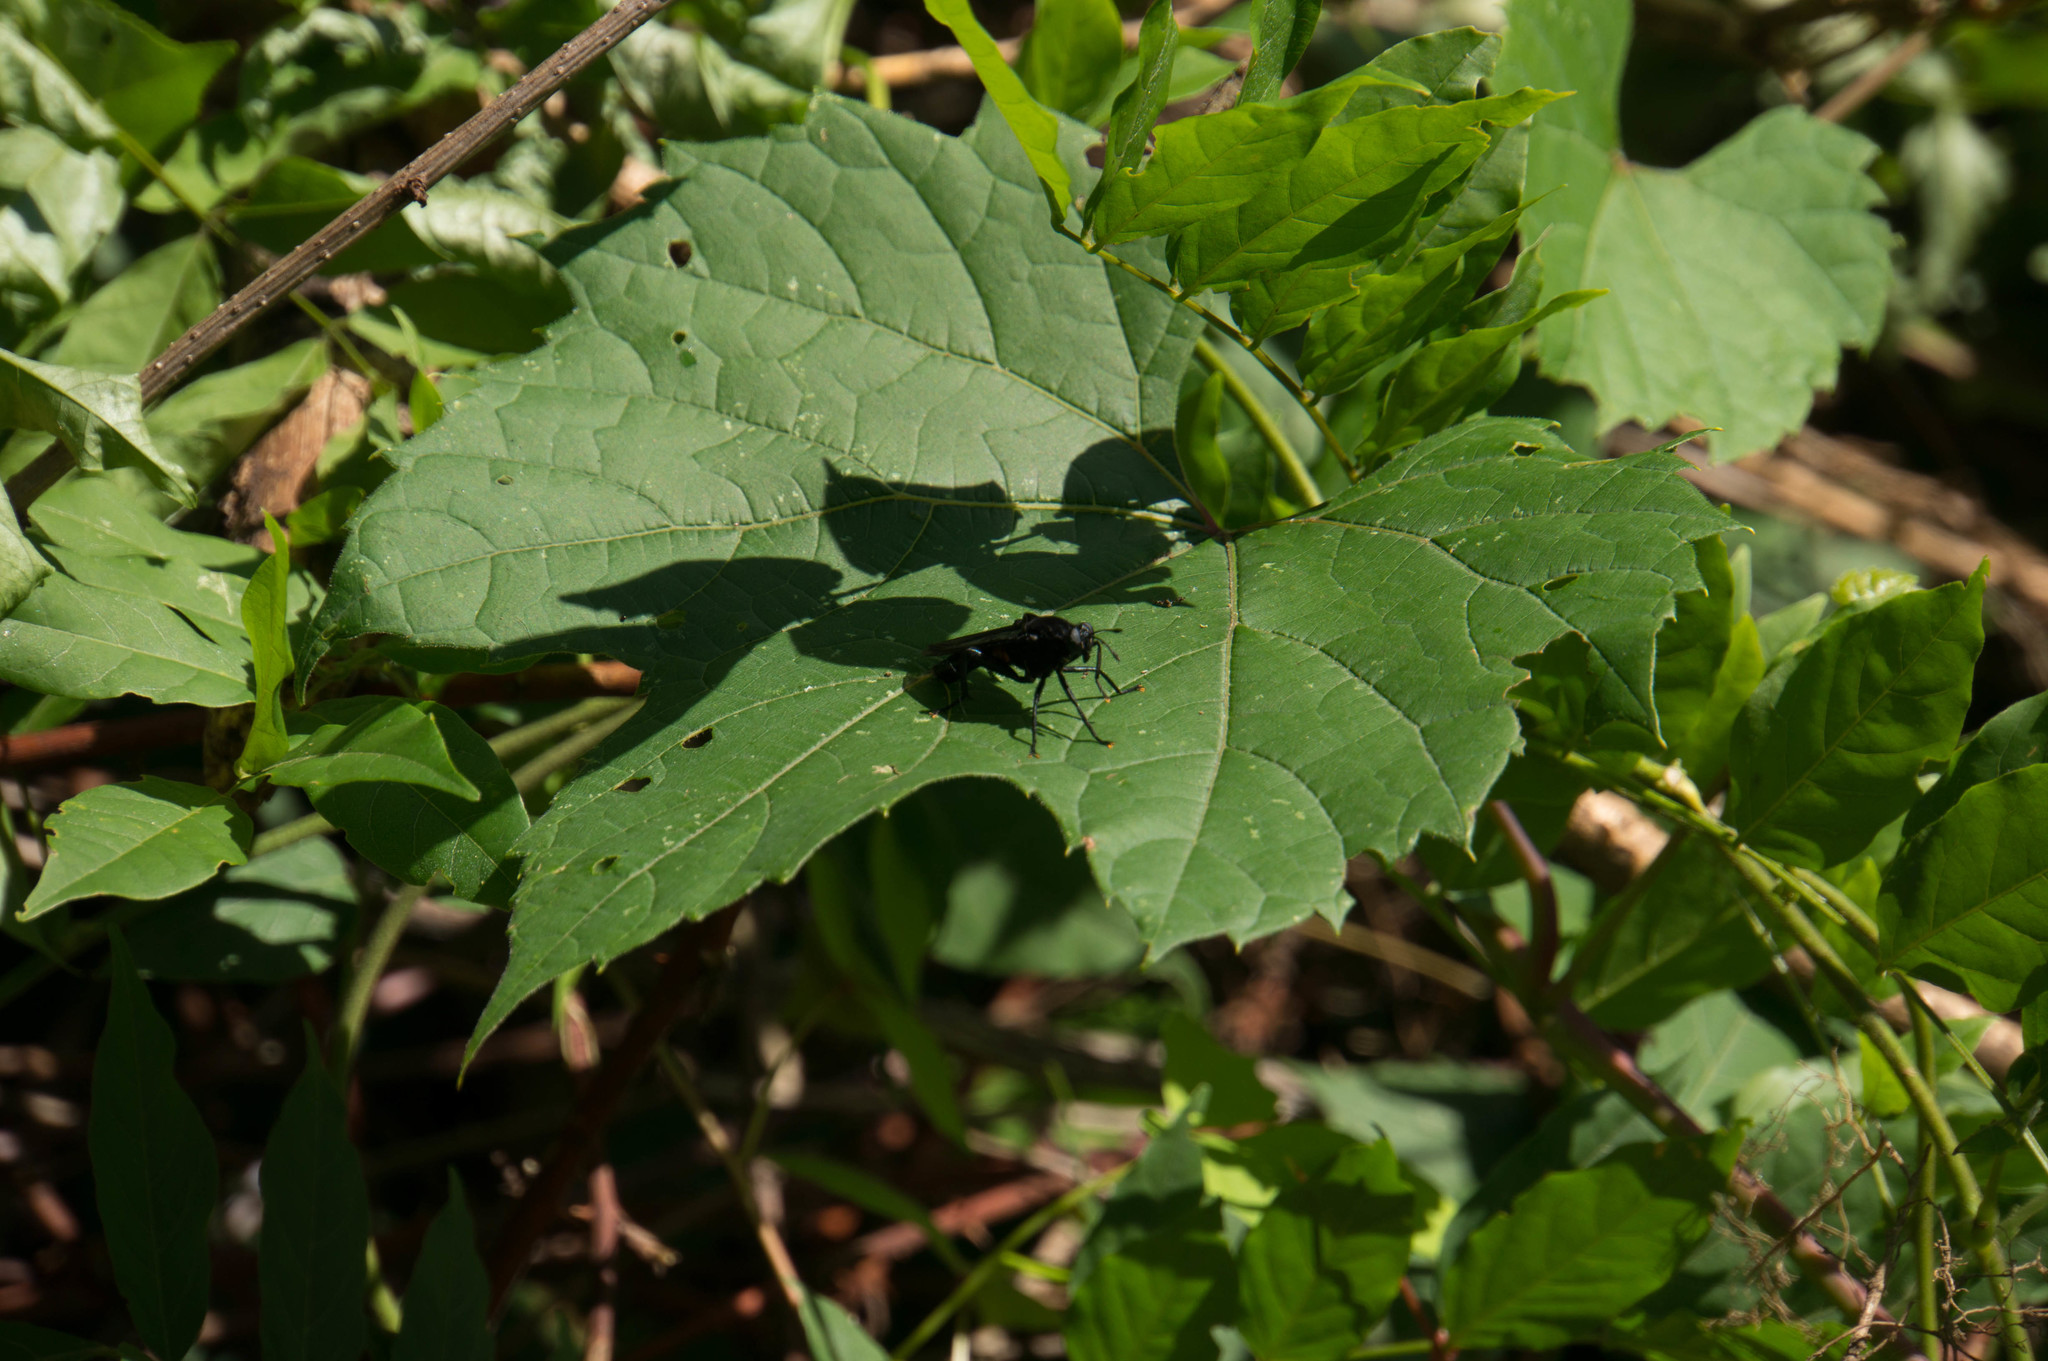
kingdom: Animalia
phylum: Arthropoda
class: Insecta
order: Diptera
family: Mydidae
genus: Mydas
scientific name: Mydas clavatus
